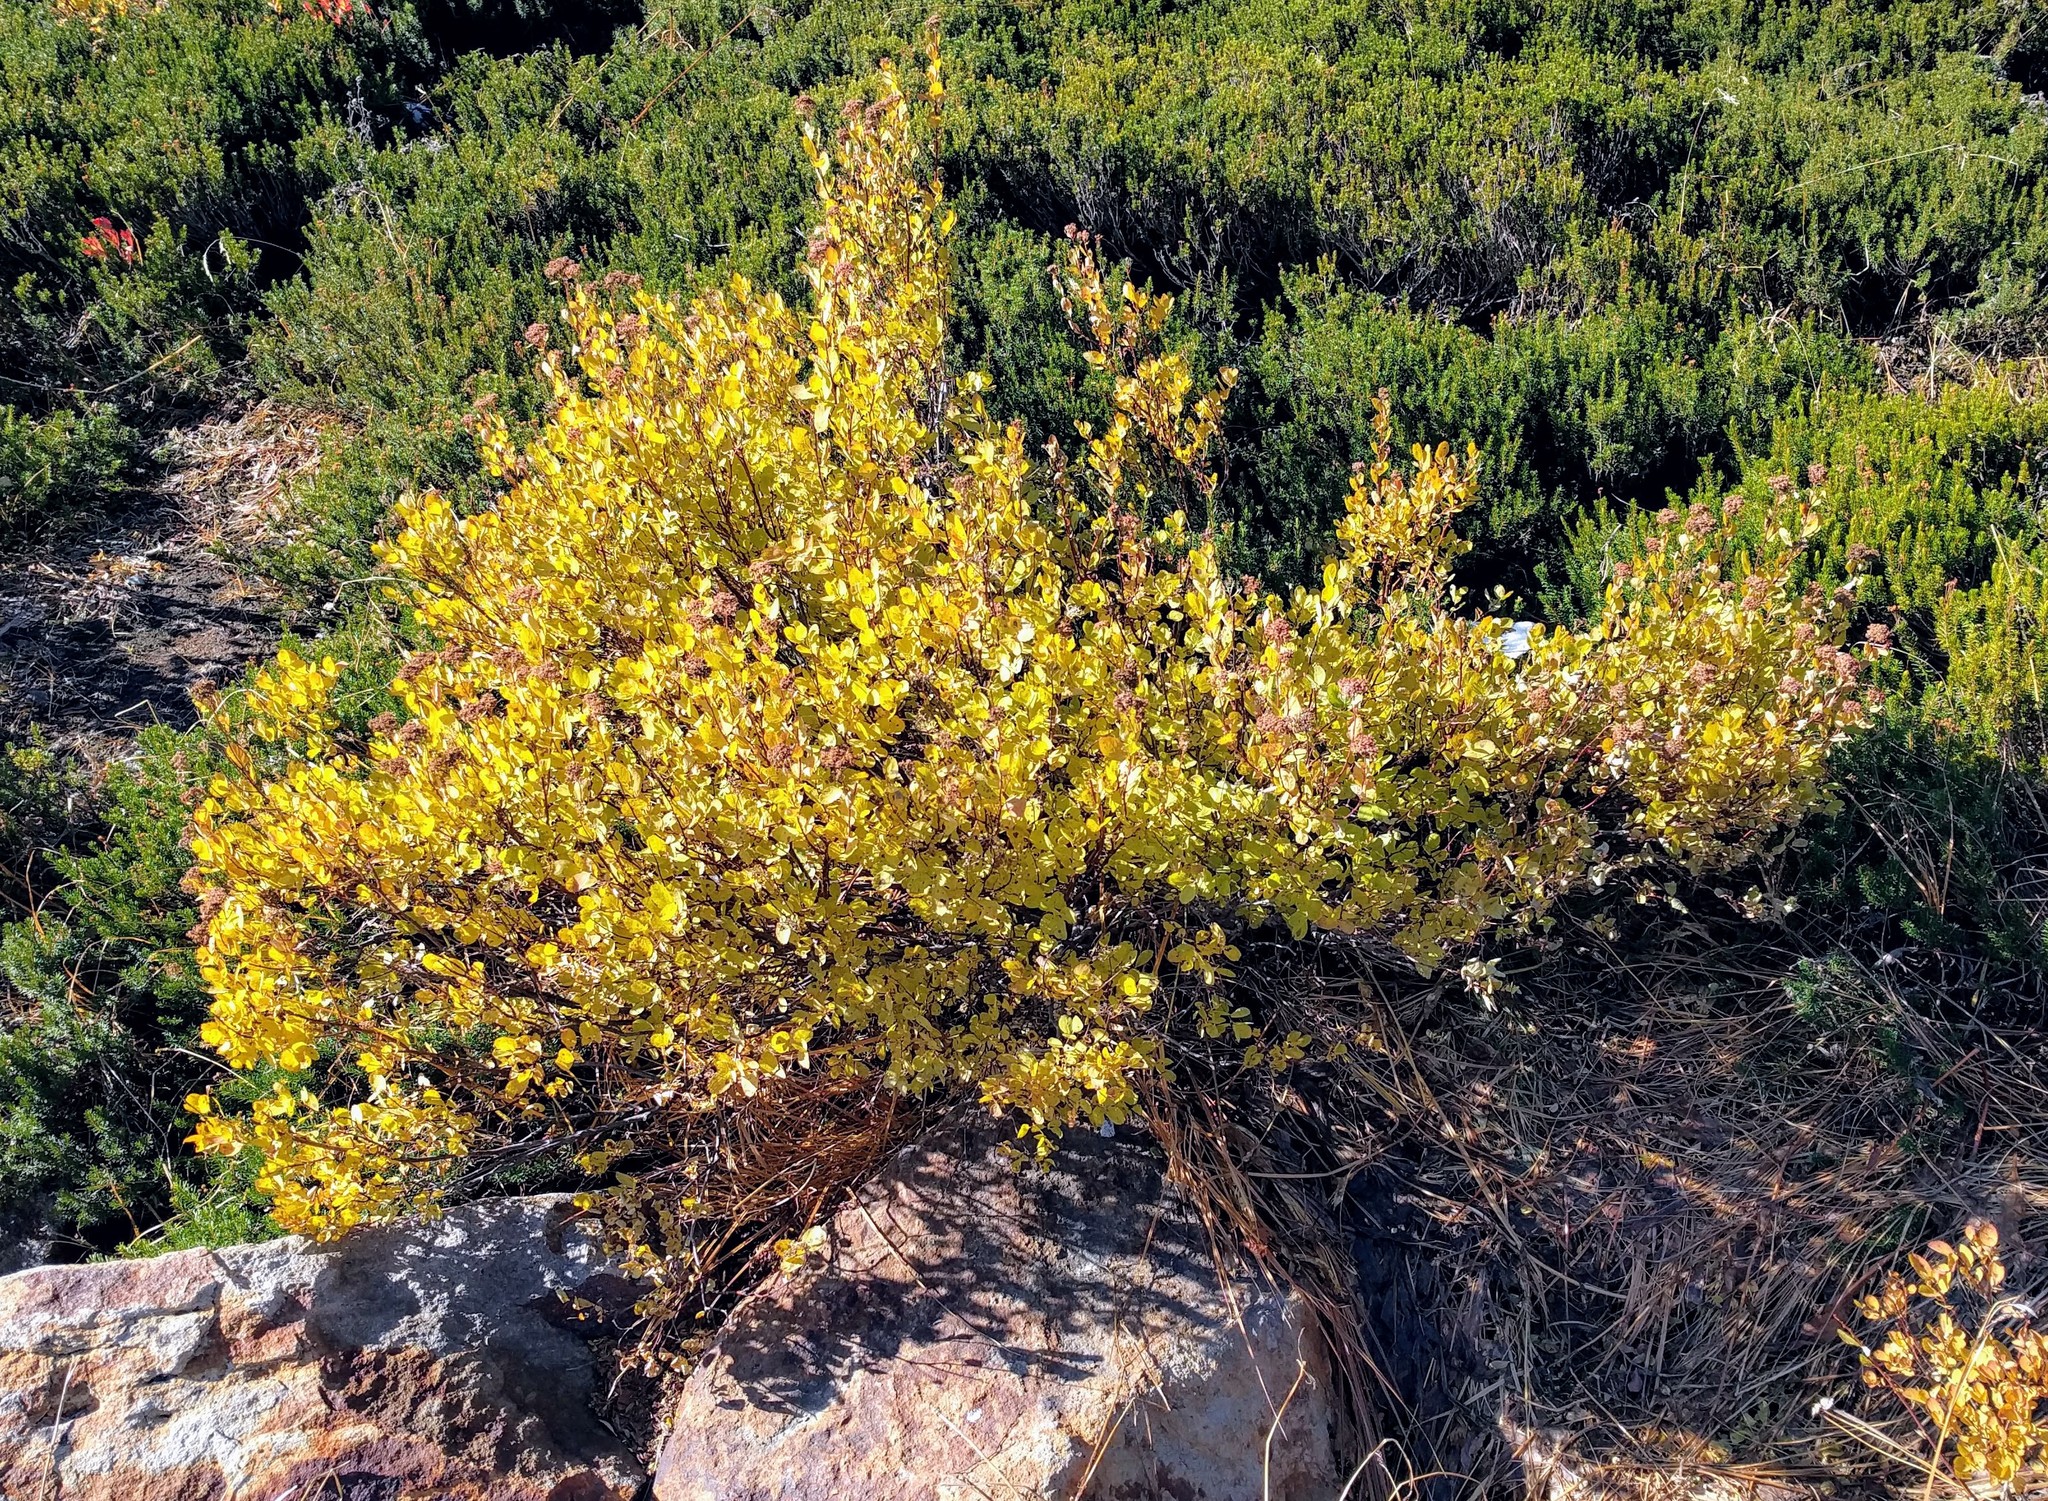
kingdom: Plantae
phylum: Tracheophyta
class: Magnoliopsida
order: Rosales
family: Rosaceae
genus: Spiraea
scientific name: Spiraea splendens
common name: Subalpine meadowsweet
